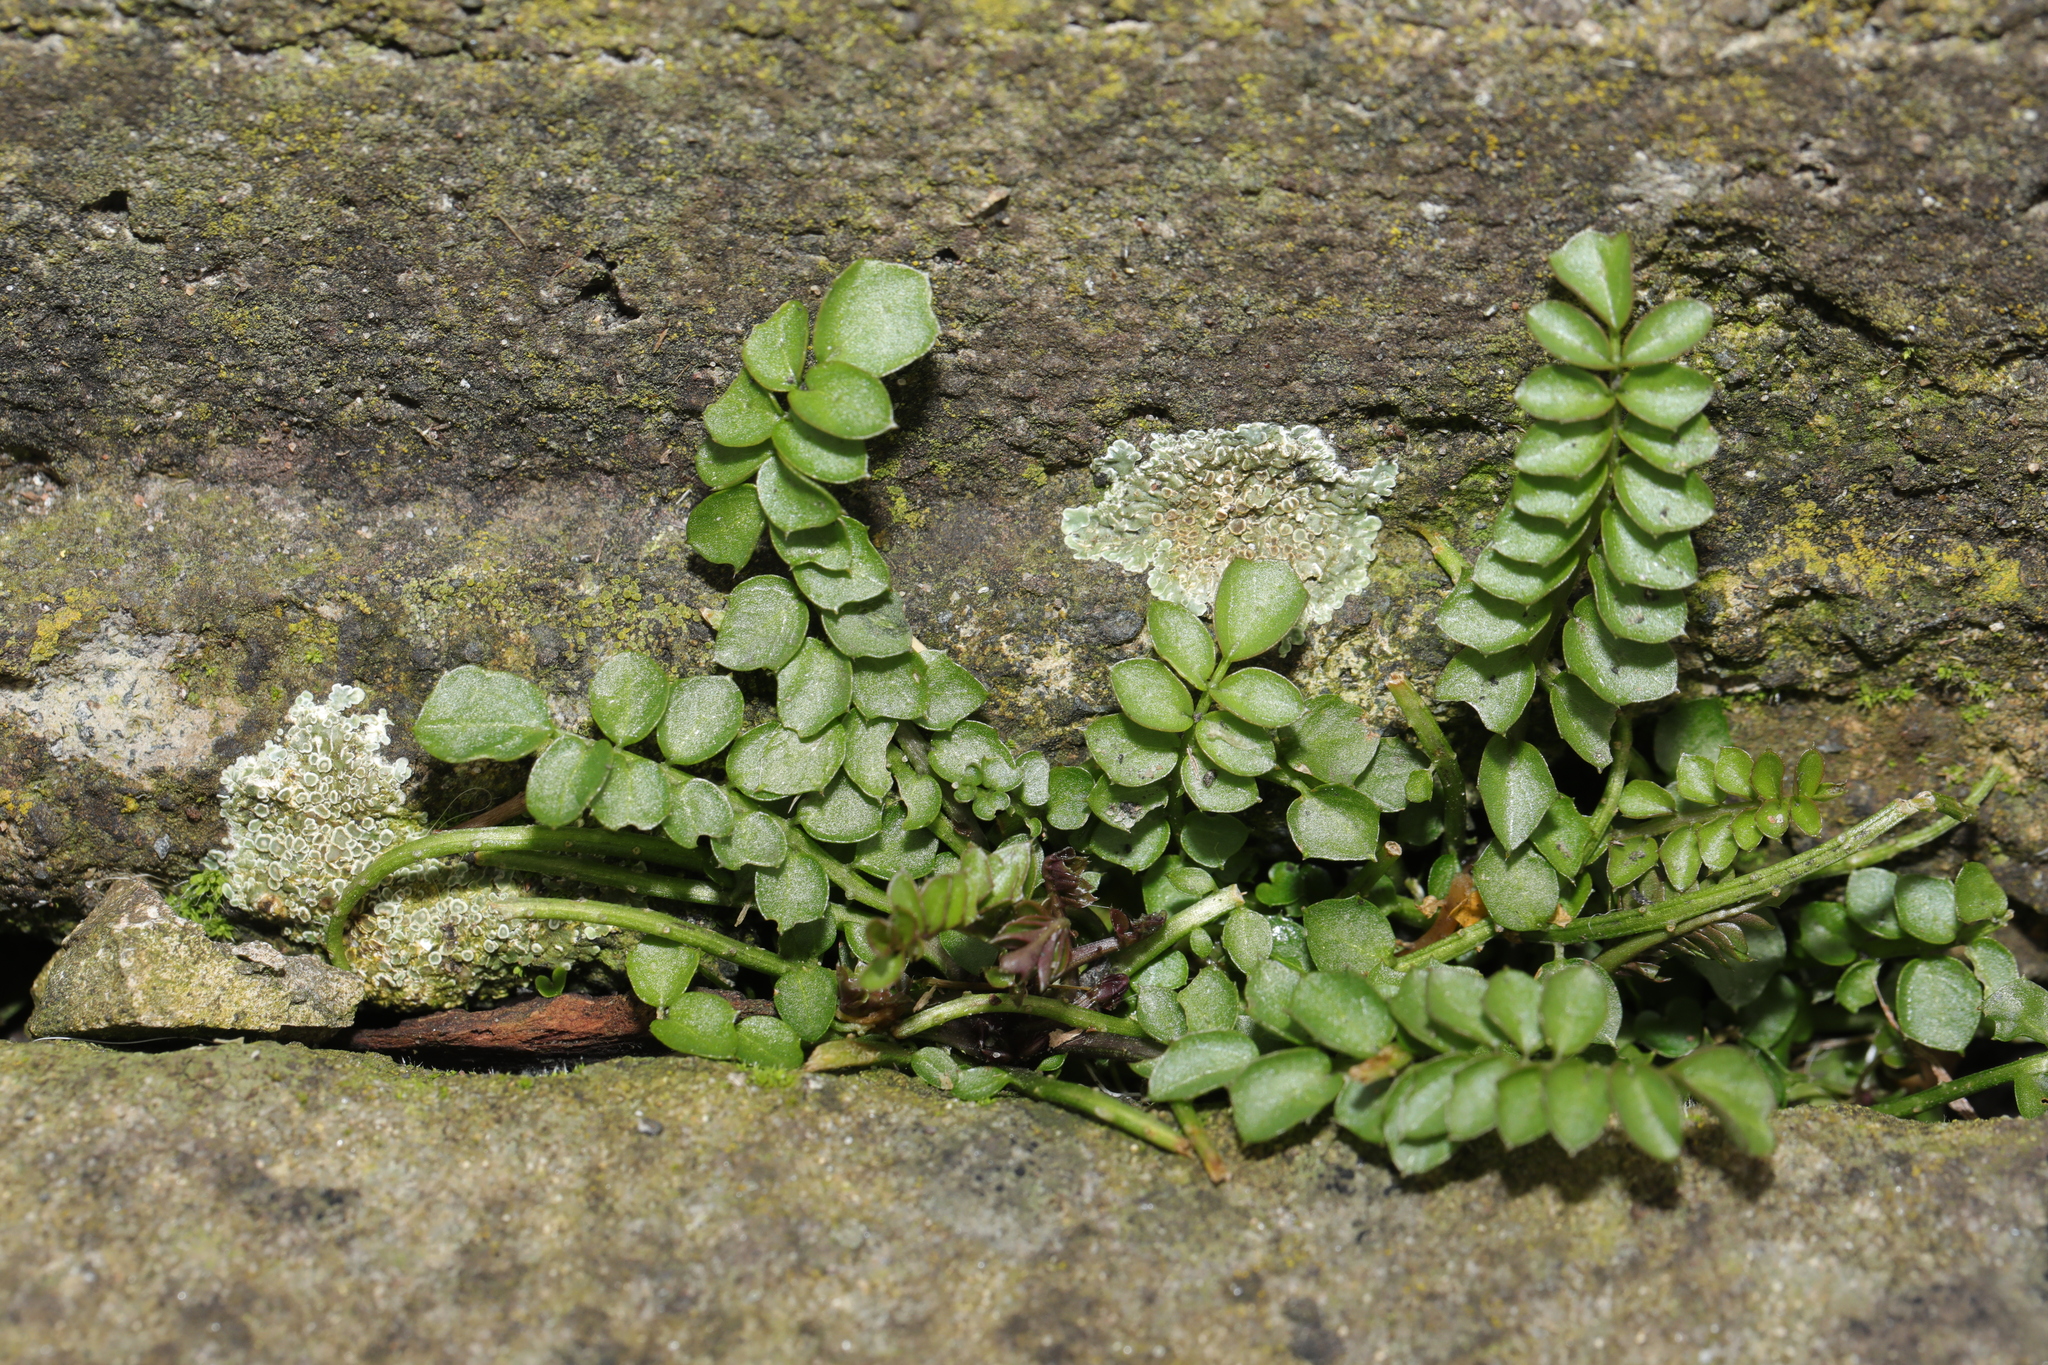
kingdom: Plantae
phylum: Tracheophyta
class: Magnoliopsida
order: Brassicales
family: Brassicaceae
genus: Cardamine
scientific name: Cardamine hirsuta
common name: Hairy bittercress
